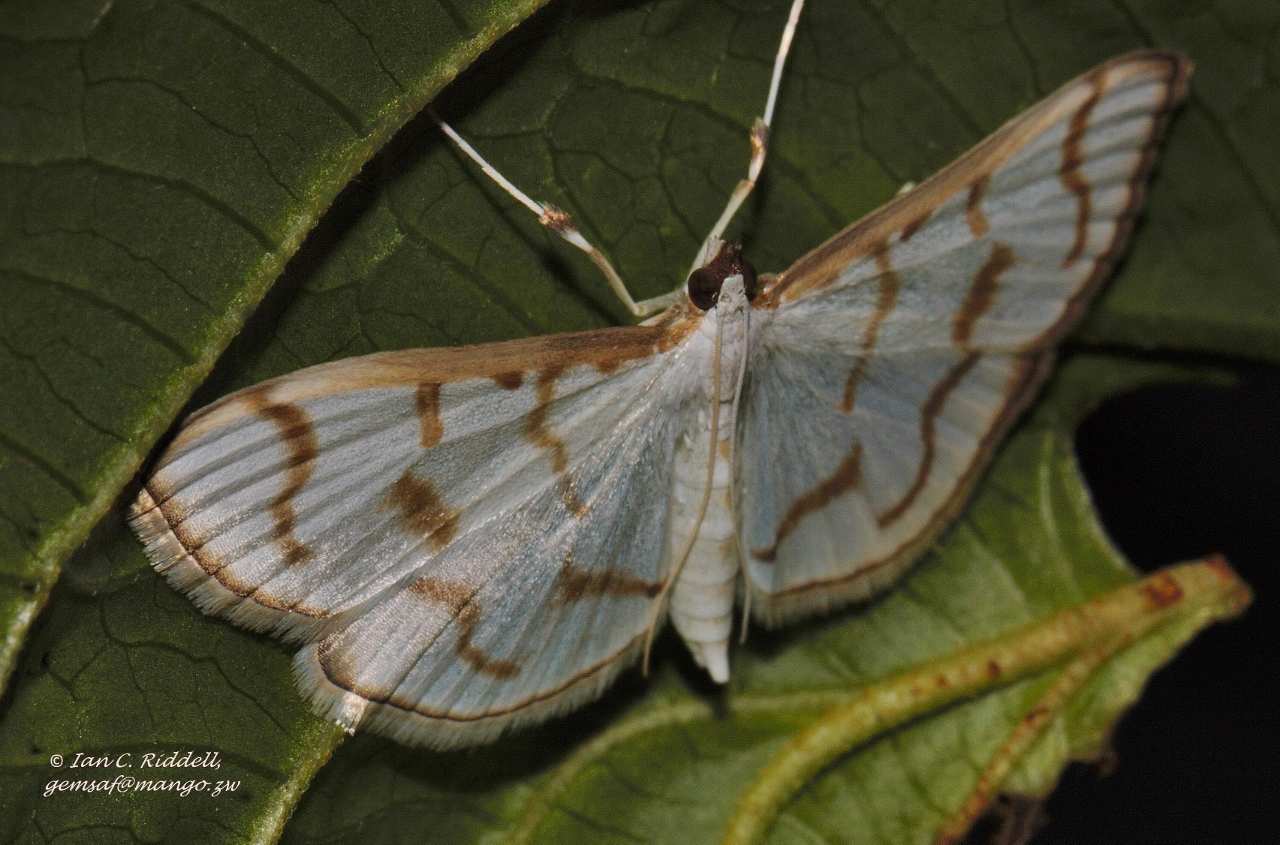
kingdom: Animalia
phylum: Arthropoda
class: Insecta
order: Lepidoptera
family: Crambidae
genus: Antigastra
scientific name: Antigastra morysalis
